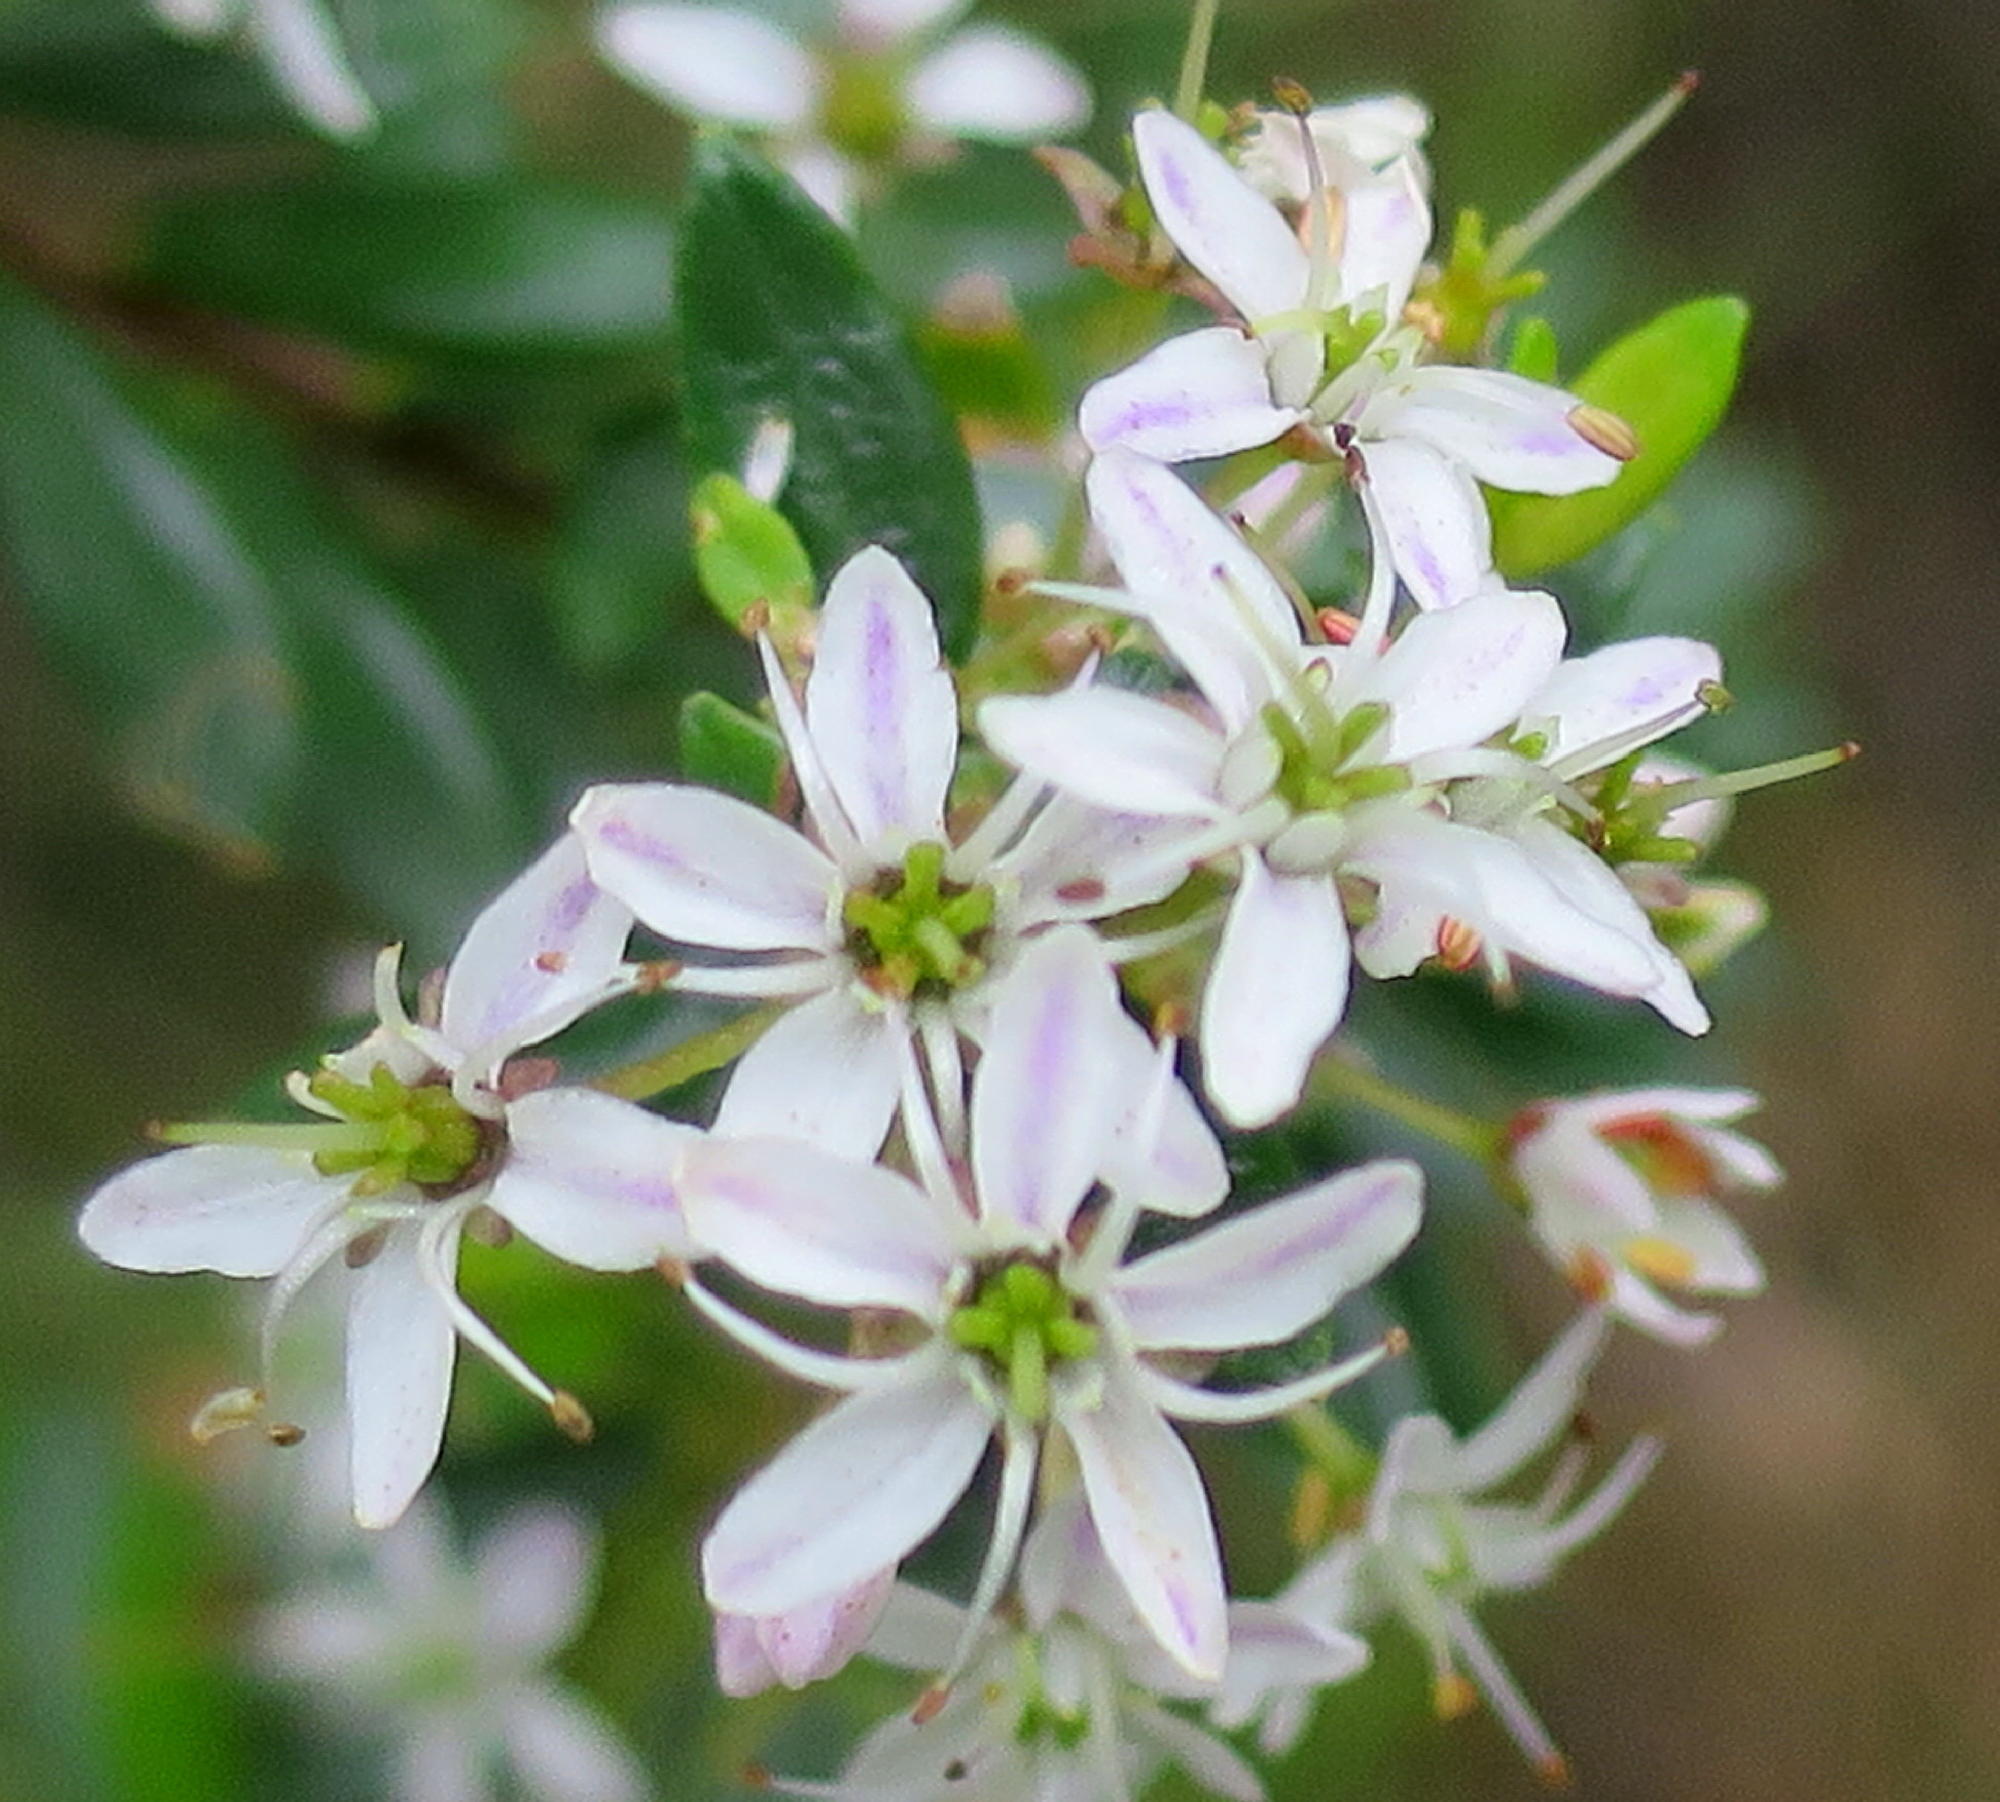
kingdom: Plantae
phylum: Tracheophyta
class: Magnoliopsida
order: Sapindales
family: Rutaceae
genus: Agathosma
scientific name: Agathosma ovata
